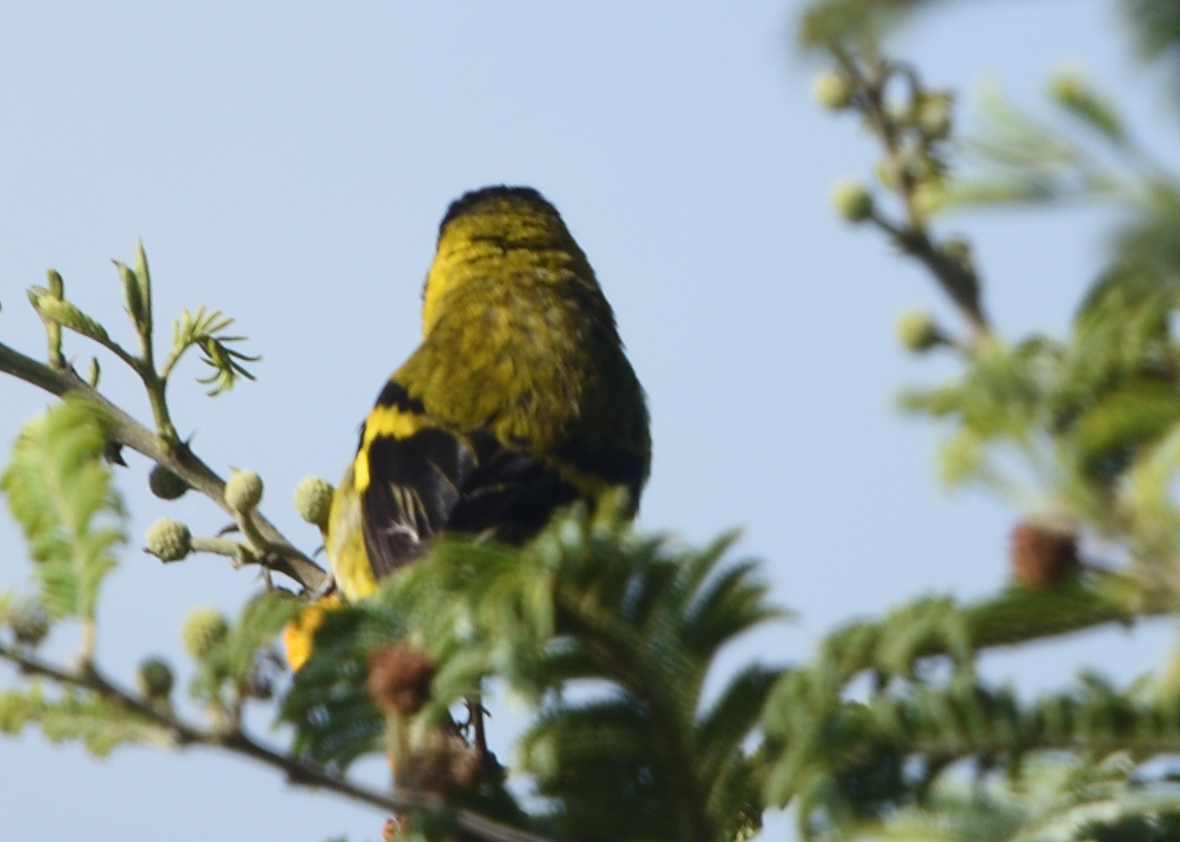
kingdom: Animalia
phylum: Chordata
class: Aves
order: Passeriformes
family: Fringillidae
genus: Spinus
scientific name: Spinus magellanicus
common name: Hooded siskin
